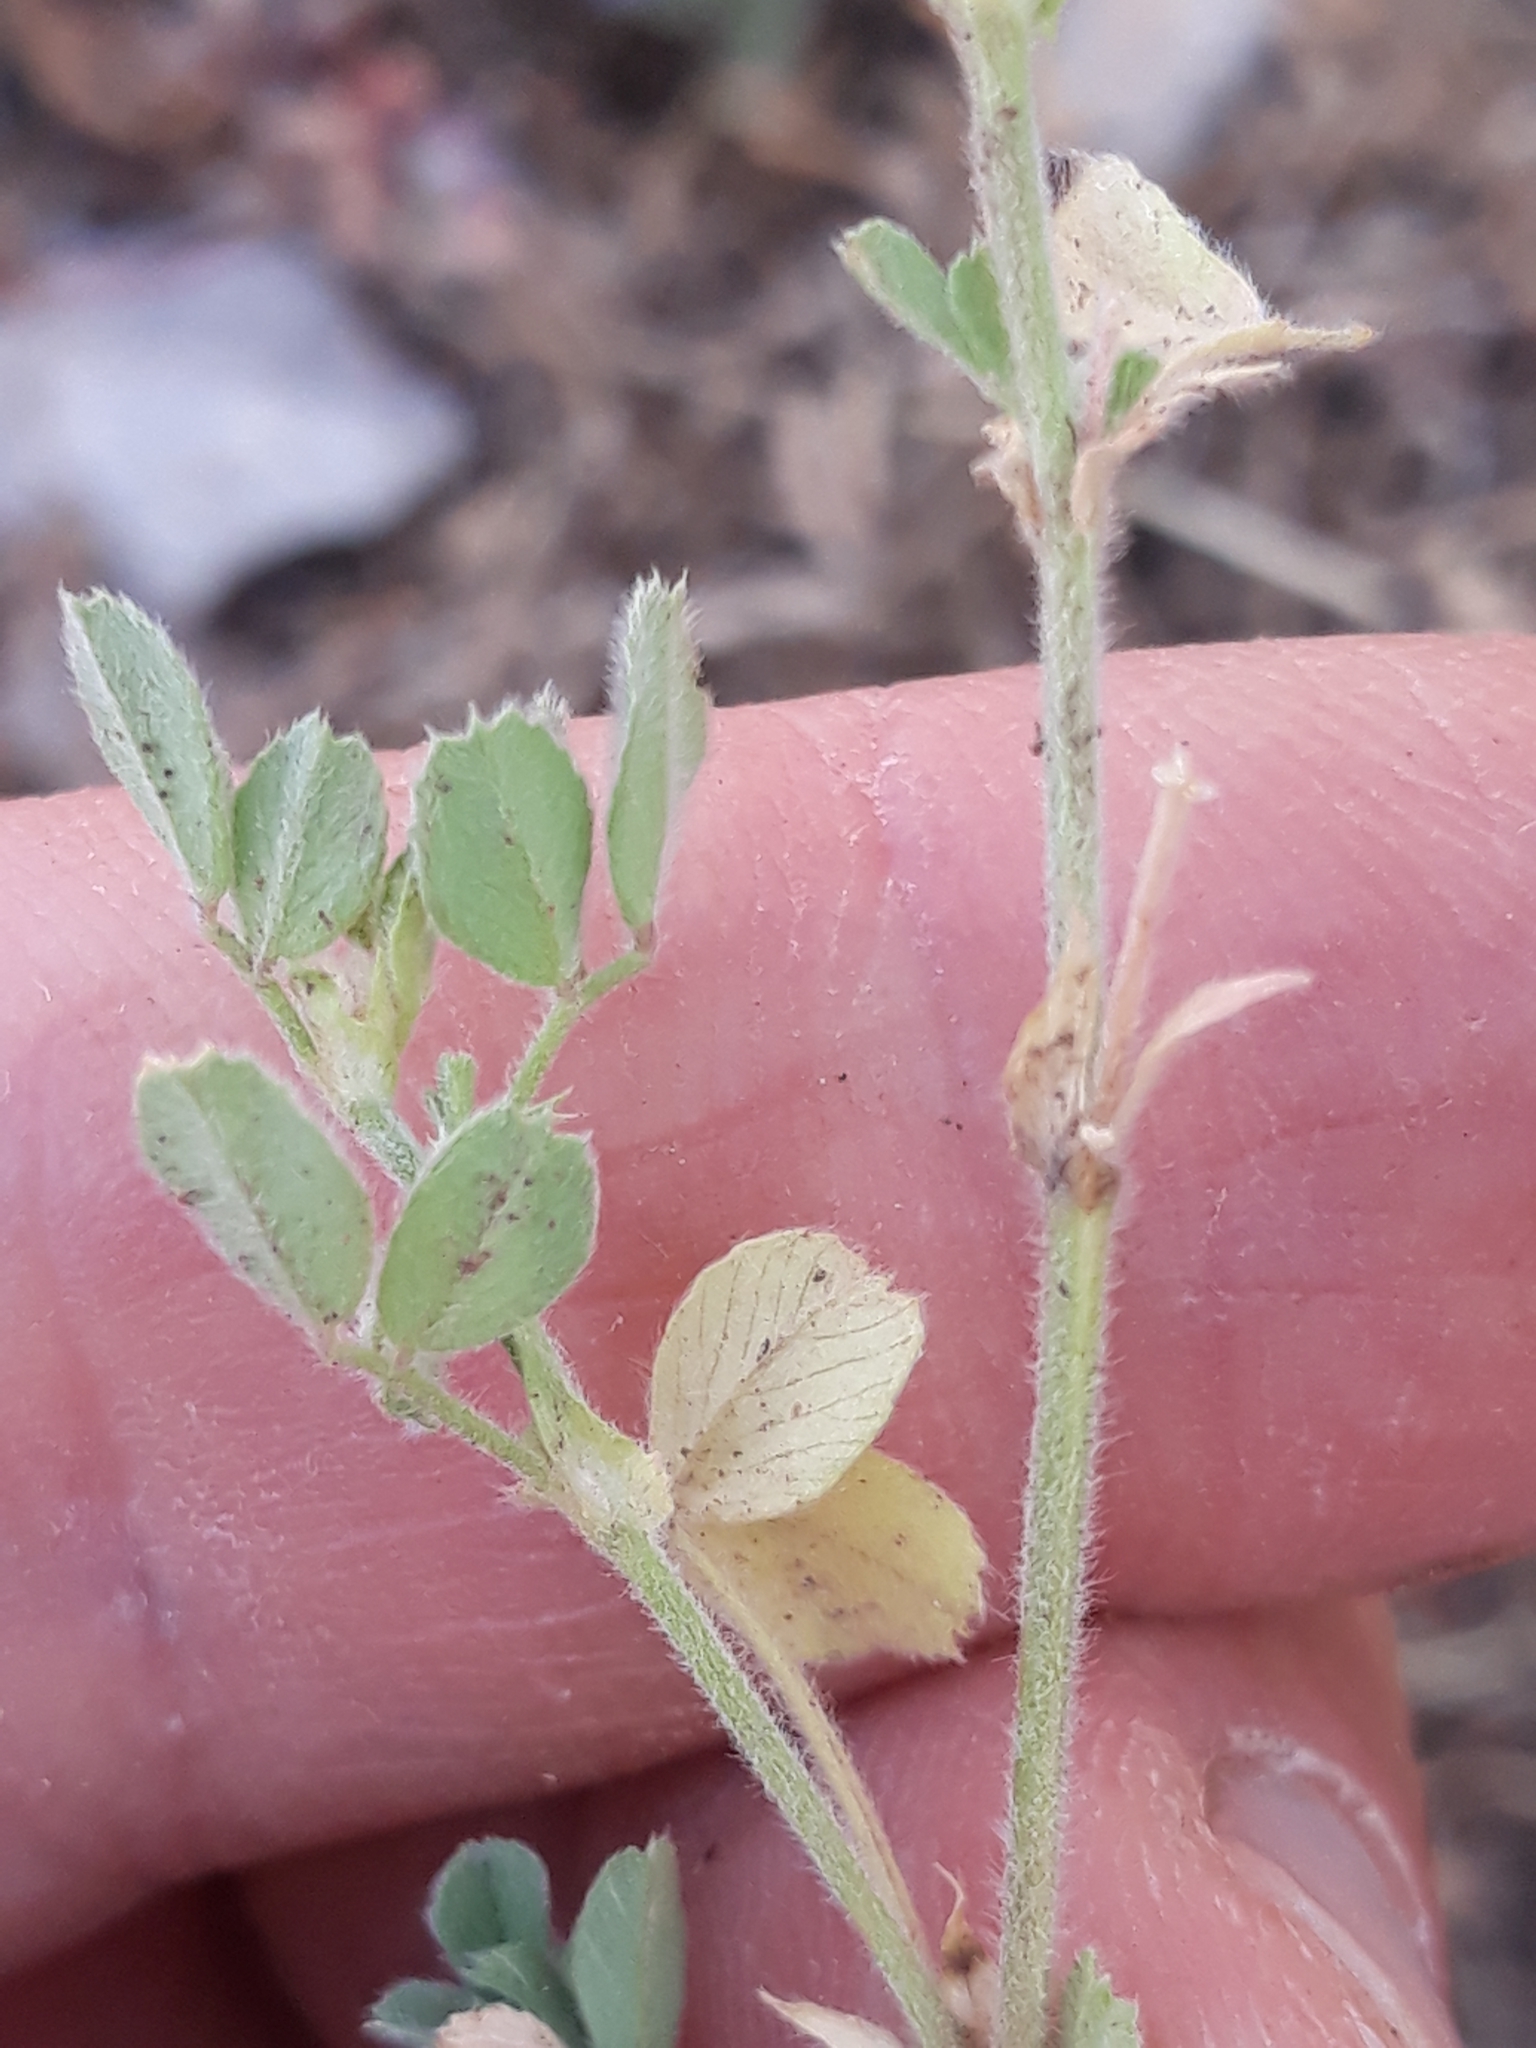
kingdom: Plantae
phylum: Tracheophyta
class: Magnoliopsida
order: Fabales
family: Fabaceae
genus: Medicago
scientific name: Medicago minima
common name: Little bur-clover
